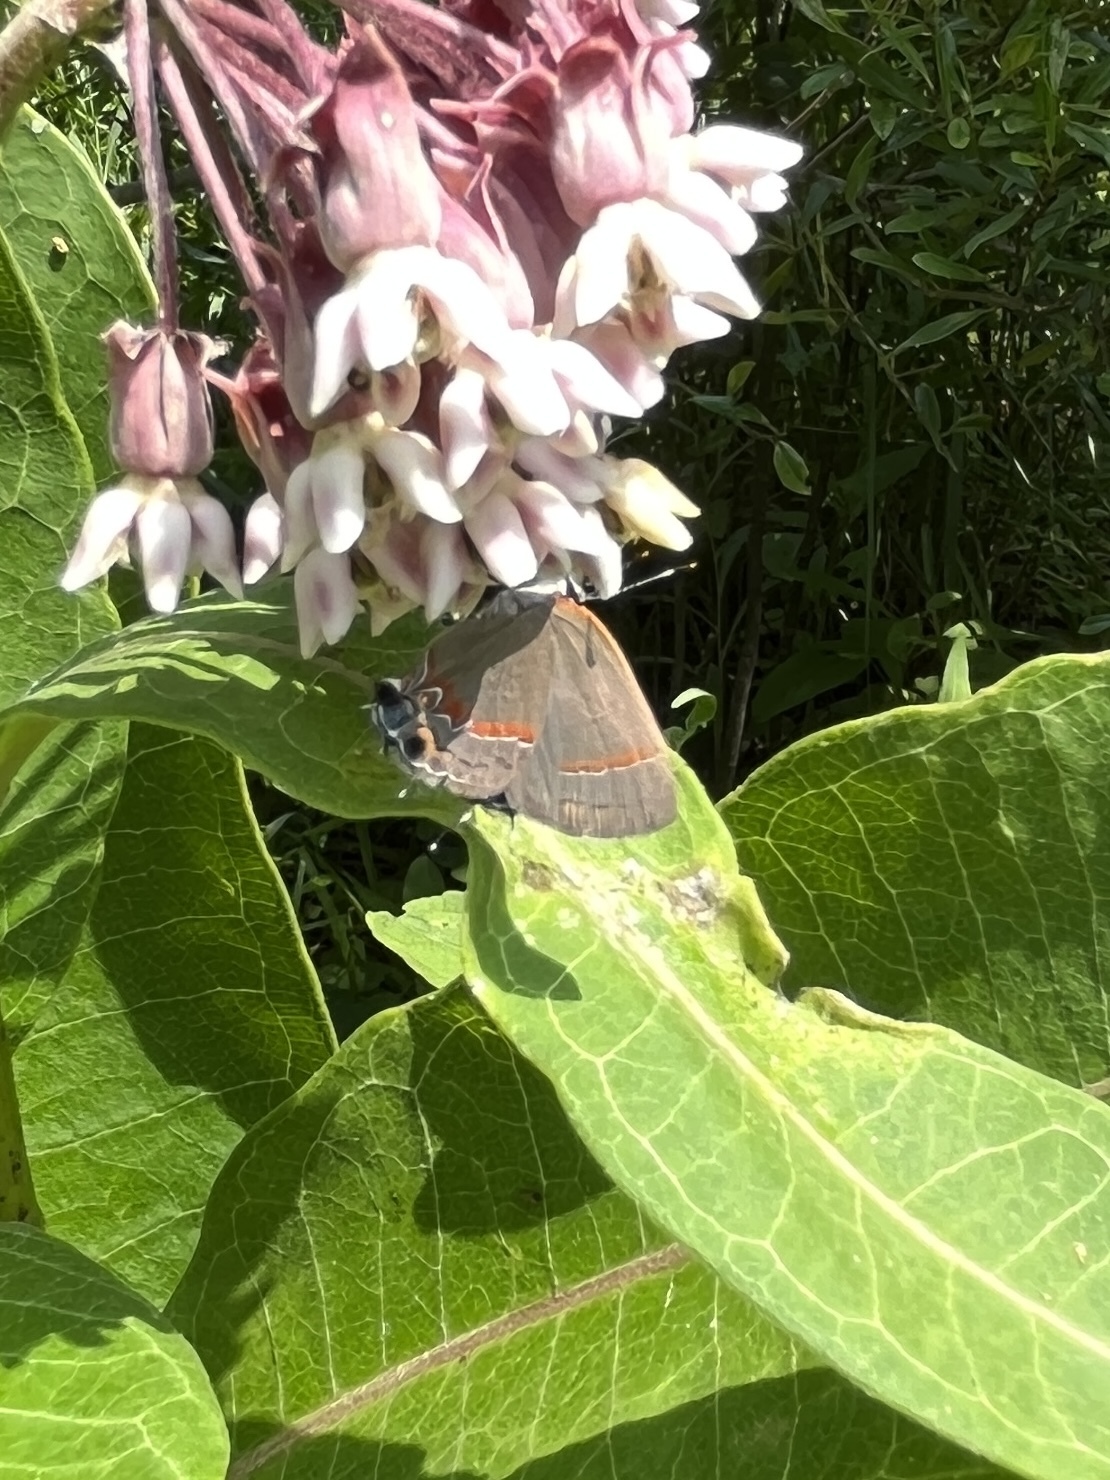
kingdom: Animalia
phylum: Arthropoda
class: Insecta
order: Lepidoptera
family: Lycaenidae
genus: Calycopis
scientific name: Calycopis cecrops
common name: Red-banded hairstreak
